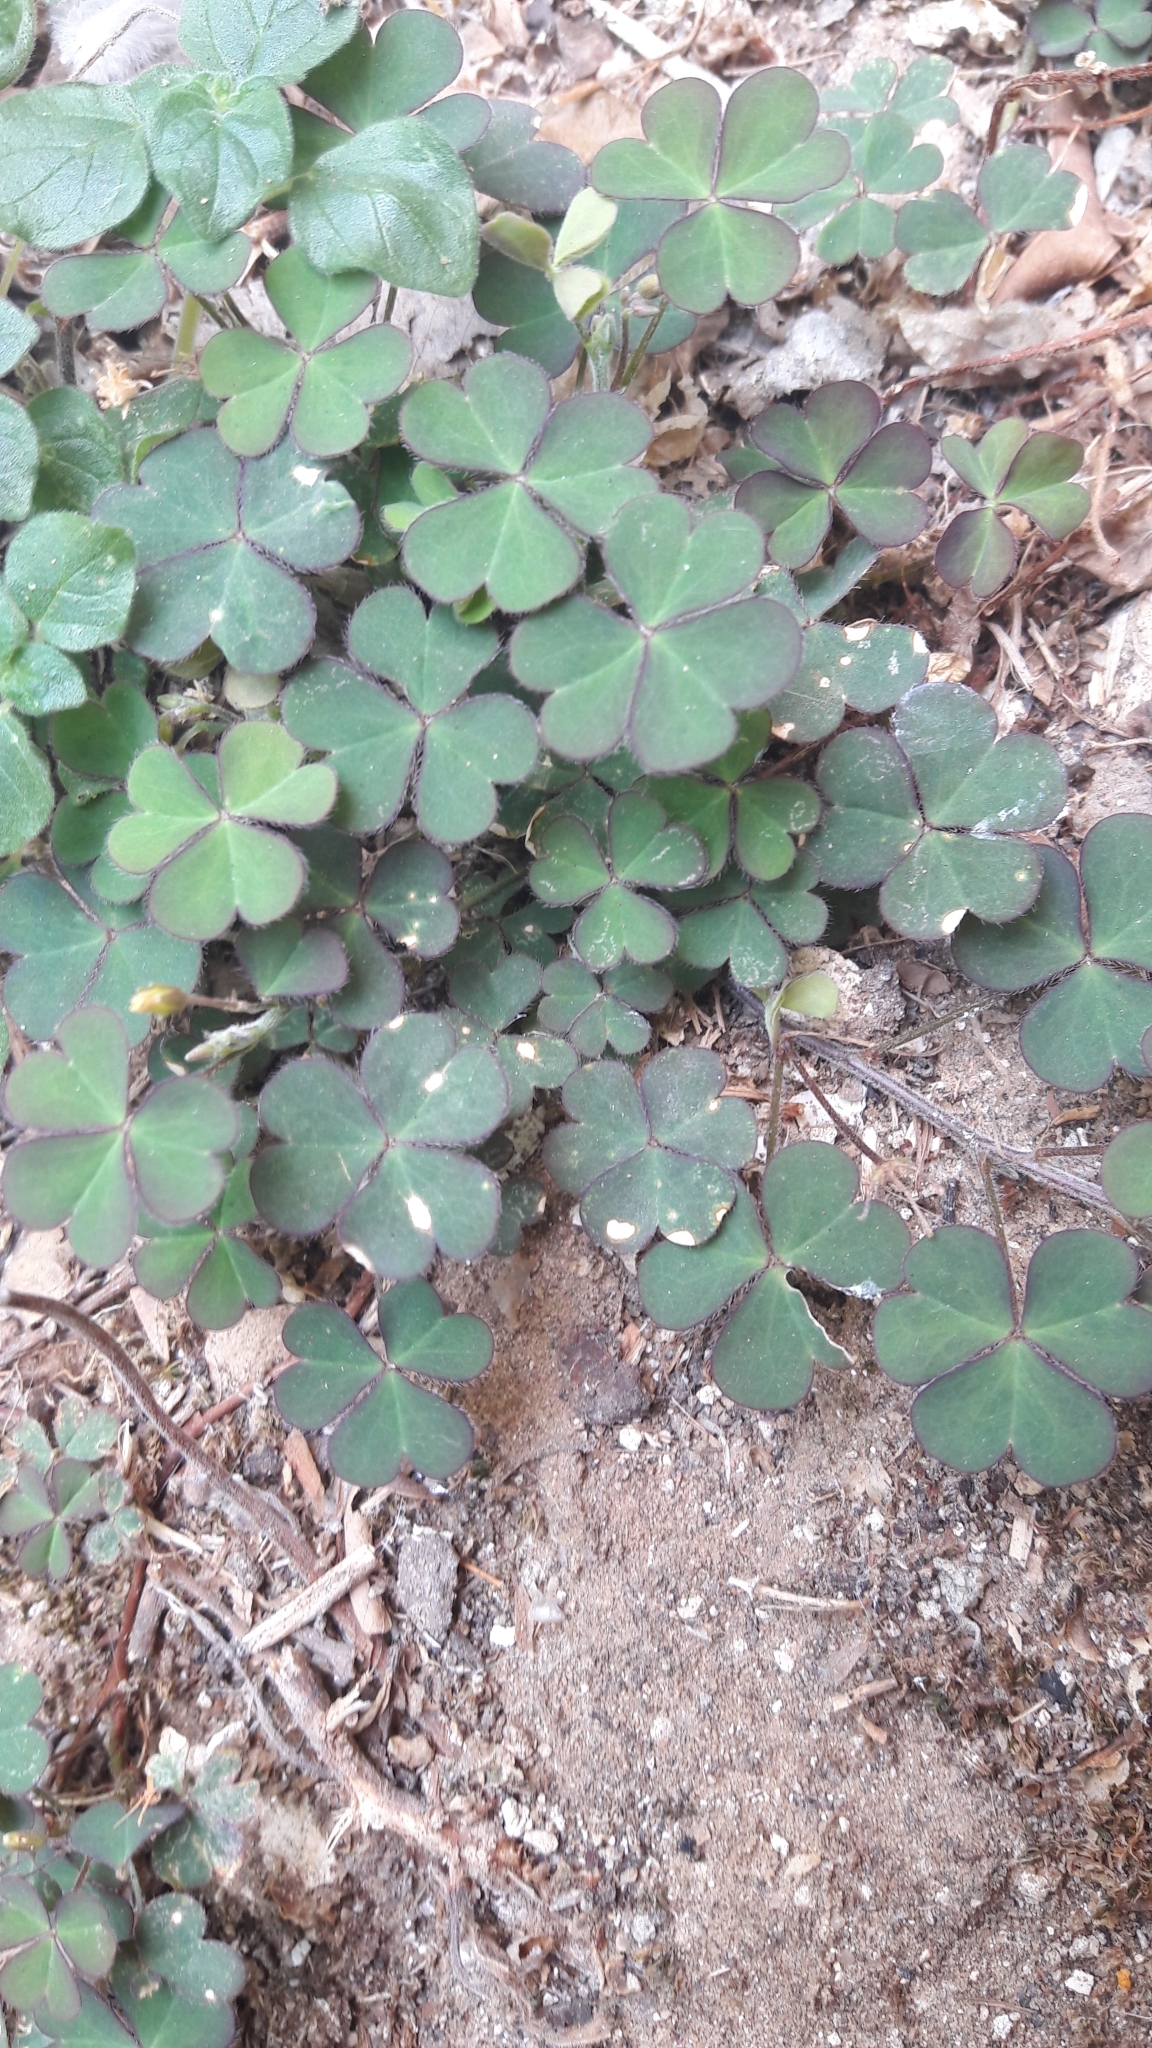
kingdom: Plantae
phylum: Tracheophyta
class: Magnoliopsida
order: Oxalidales
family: Oxalidaceae
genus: Oxalis
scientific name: Oxalis corniculata
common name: Procumbent yellow-sorrel
